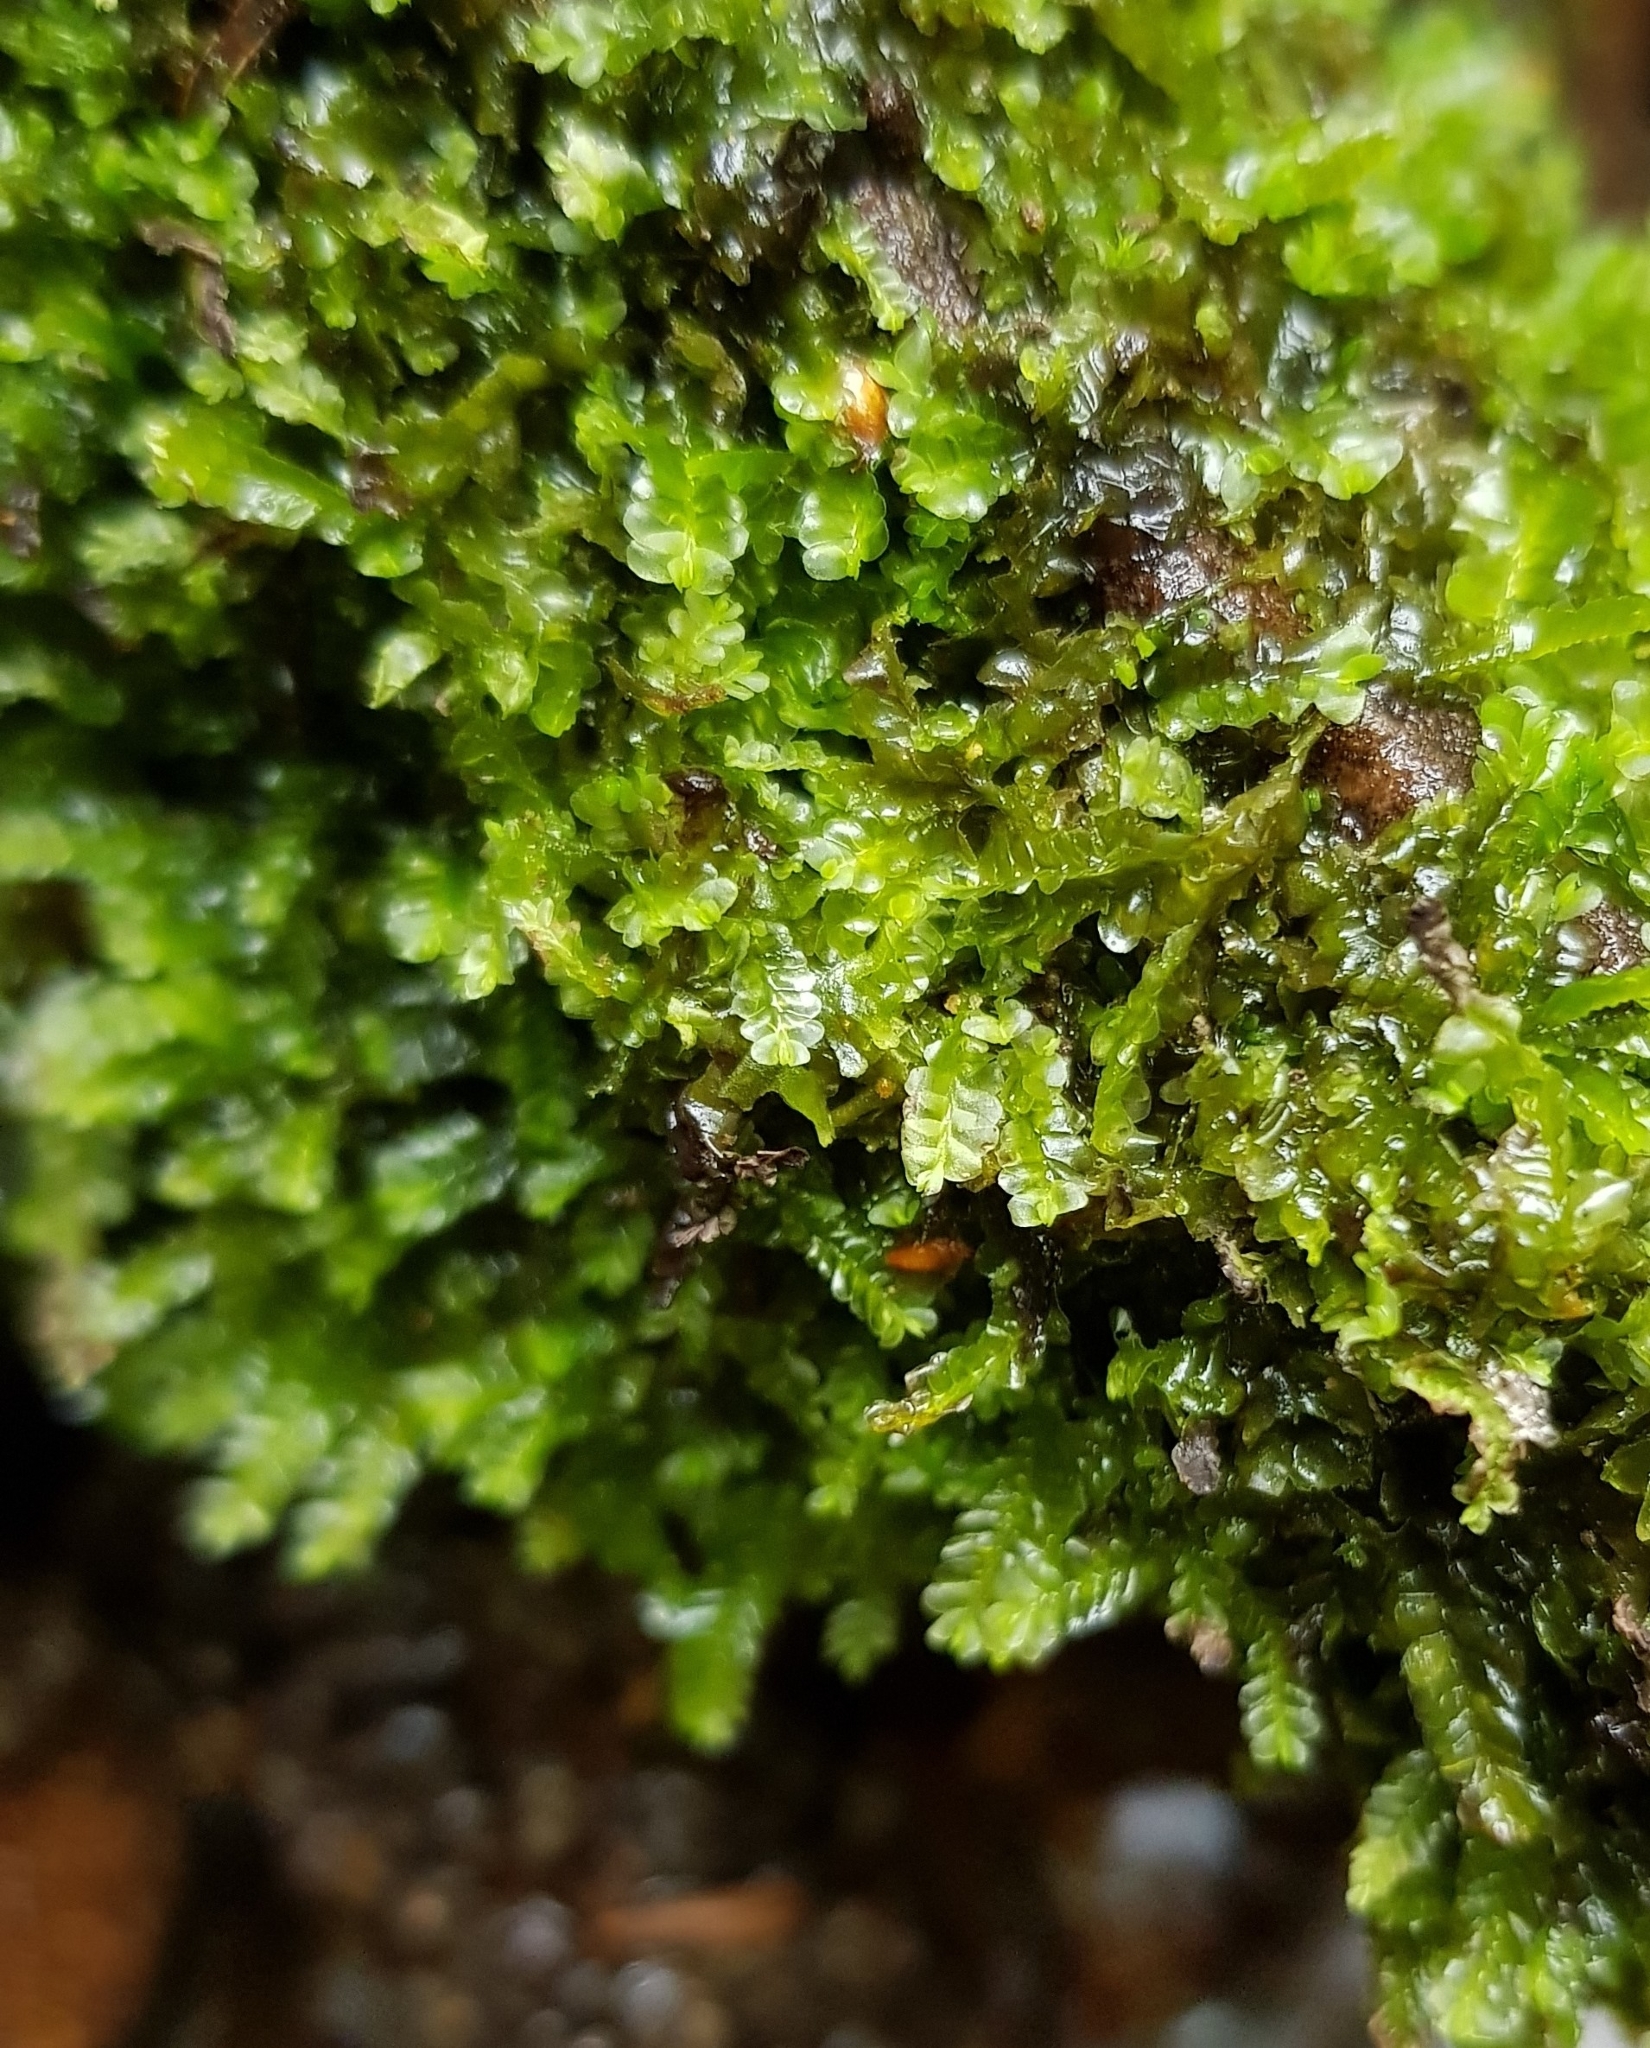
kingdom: Plantae
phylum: Marchantiophyta
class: Jungermanniopsida
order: Jungermanniales
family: Lophocoleaceae
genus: Chiloscyphus
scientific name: Chiloscyphus polyanthos
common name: Square-leaved crestwort
